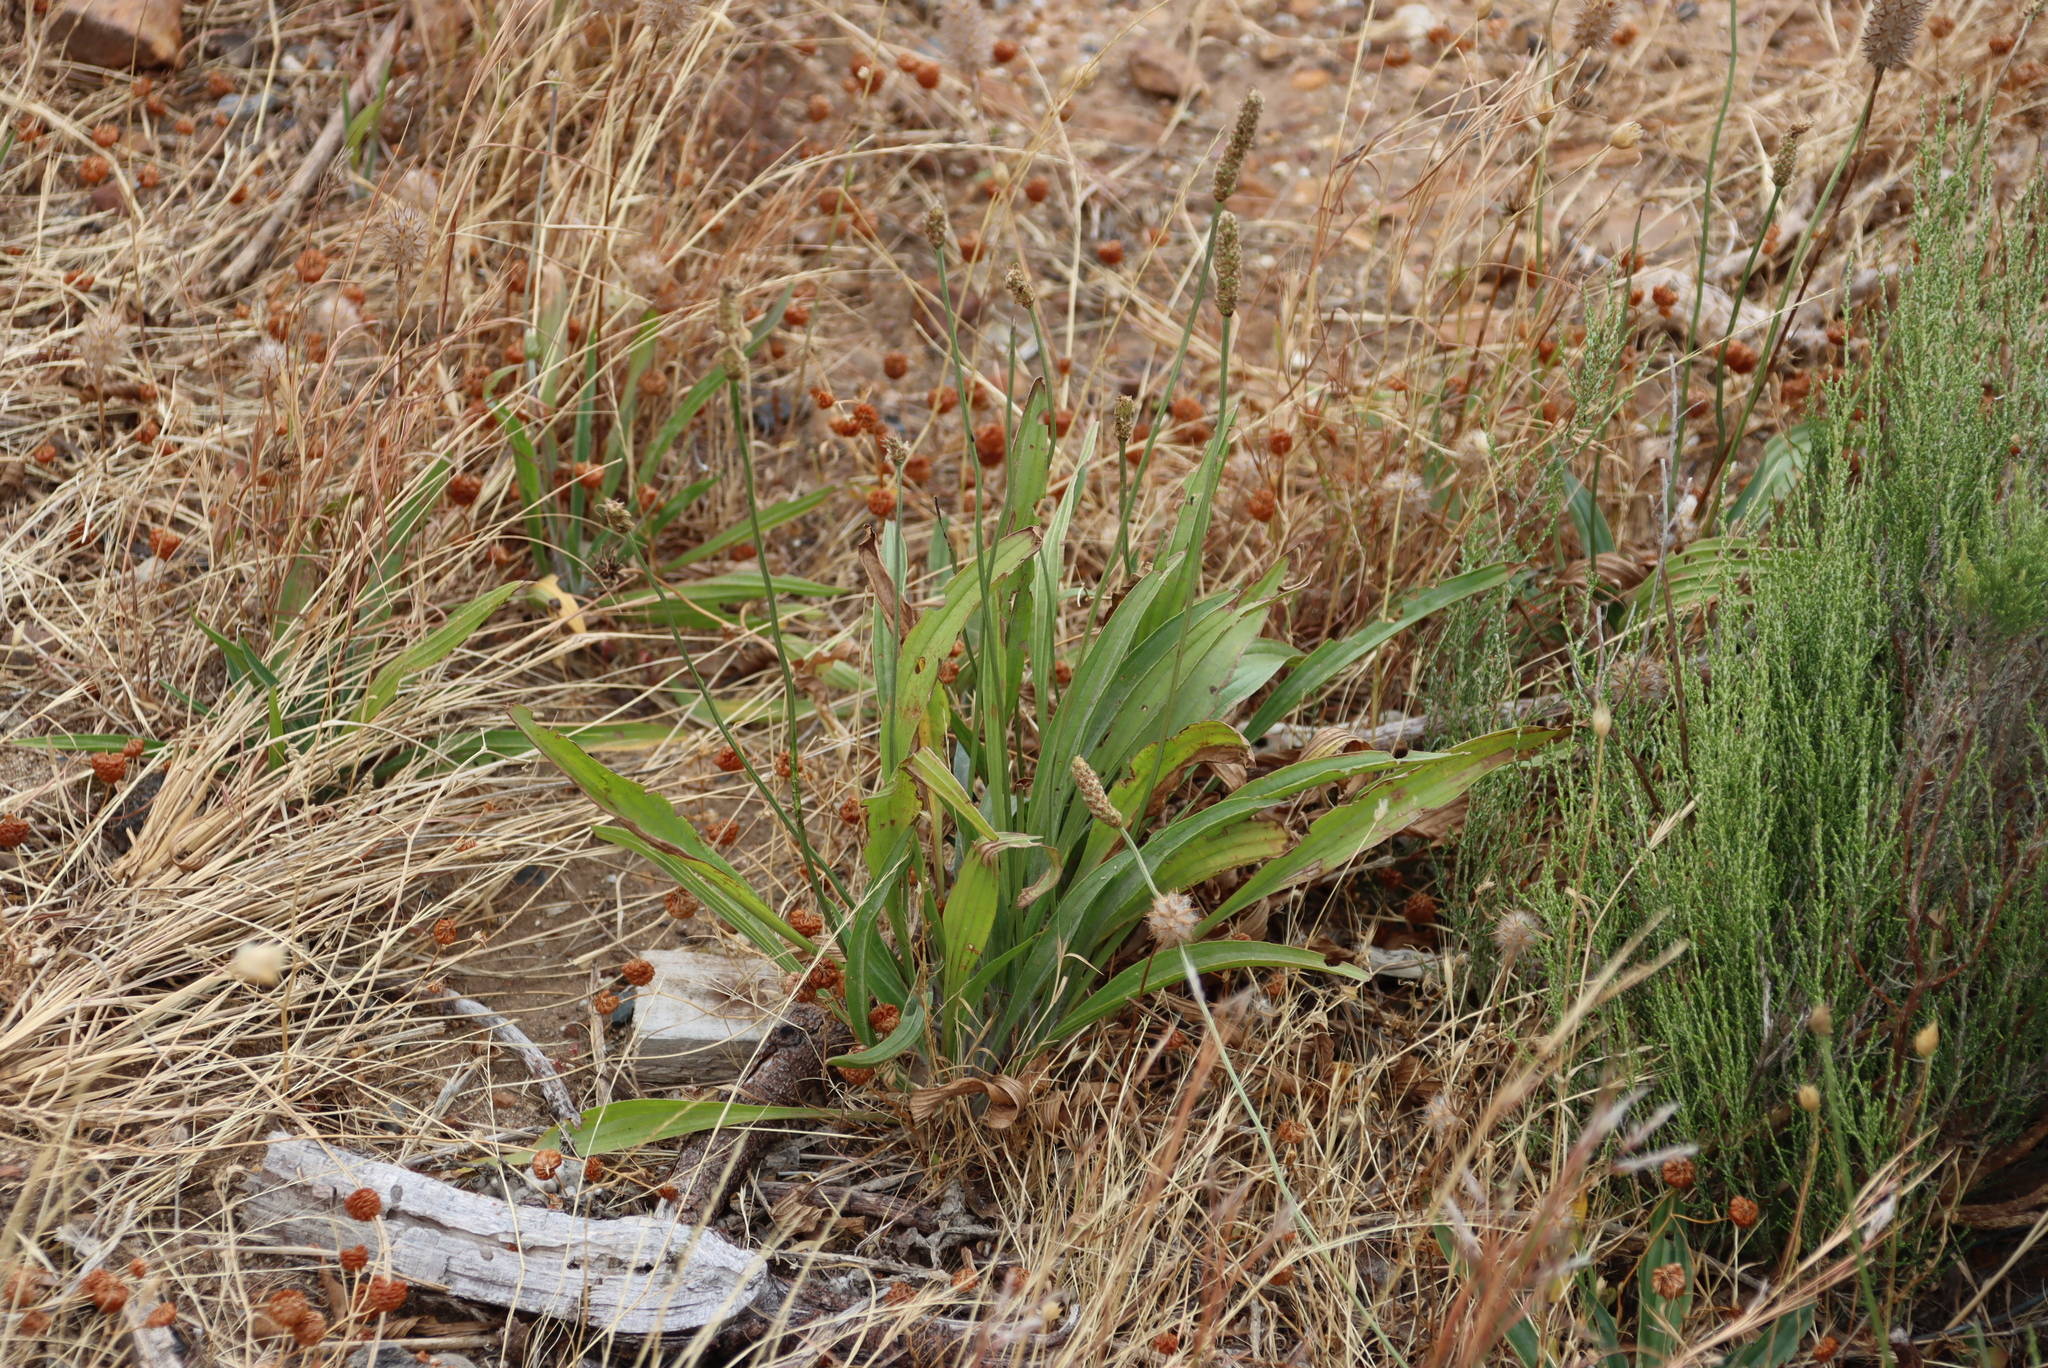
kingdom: Plantae
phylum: Tracheophyta
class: Magnoliopsida
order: Lamiales
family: Plantaginaceae
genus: Plantago
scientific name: Plantago lanceolata
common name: Ribwort plantain
